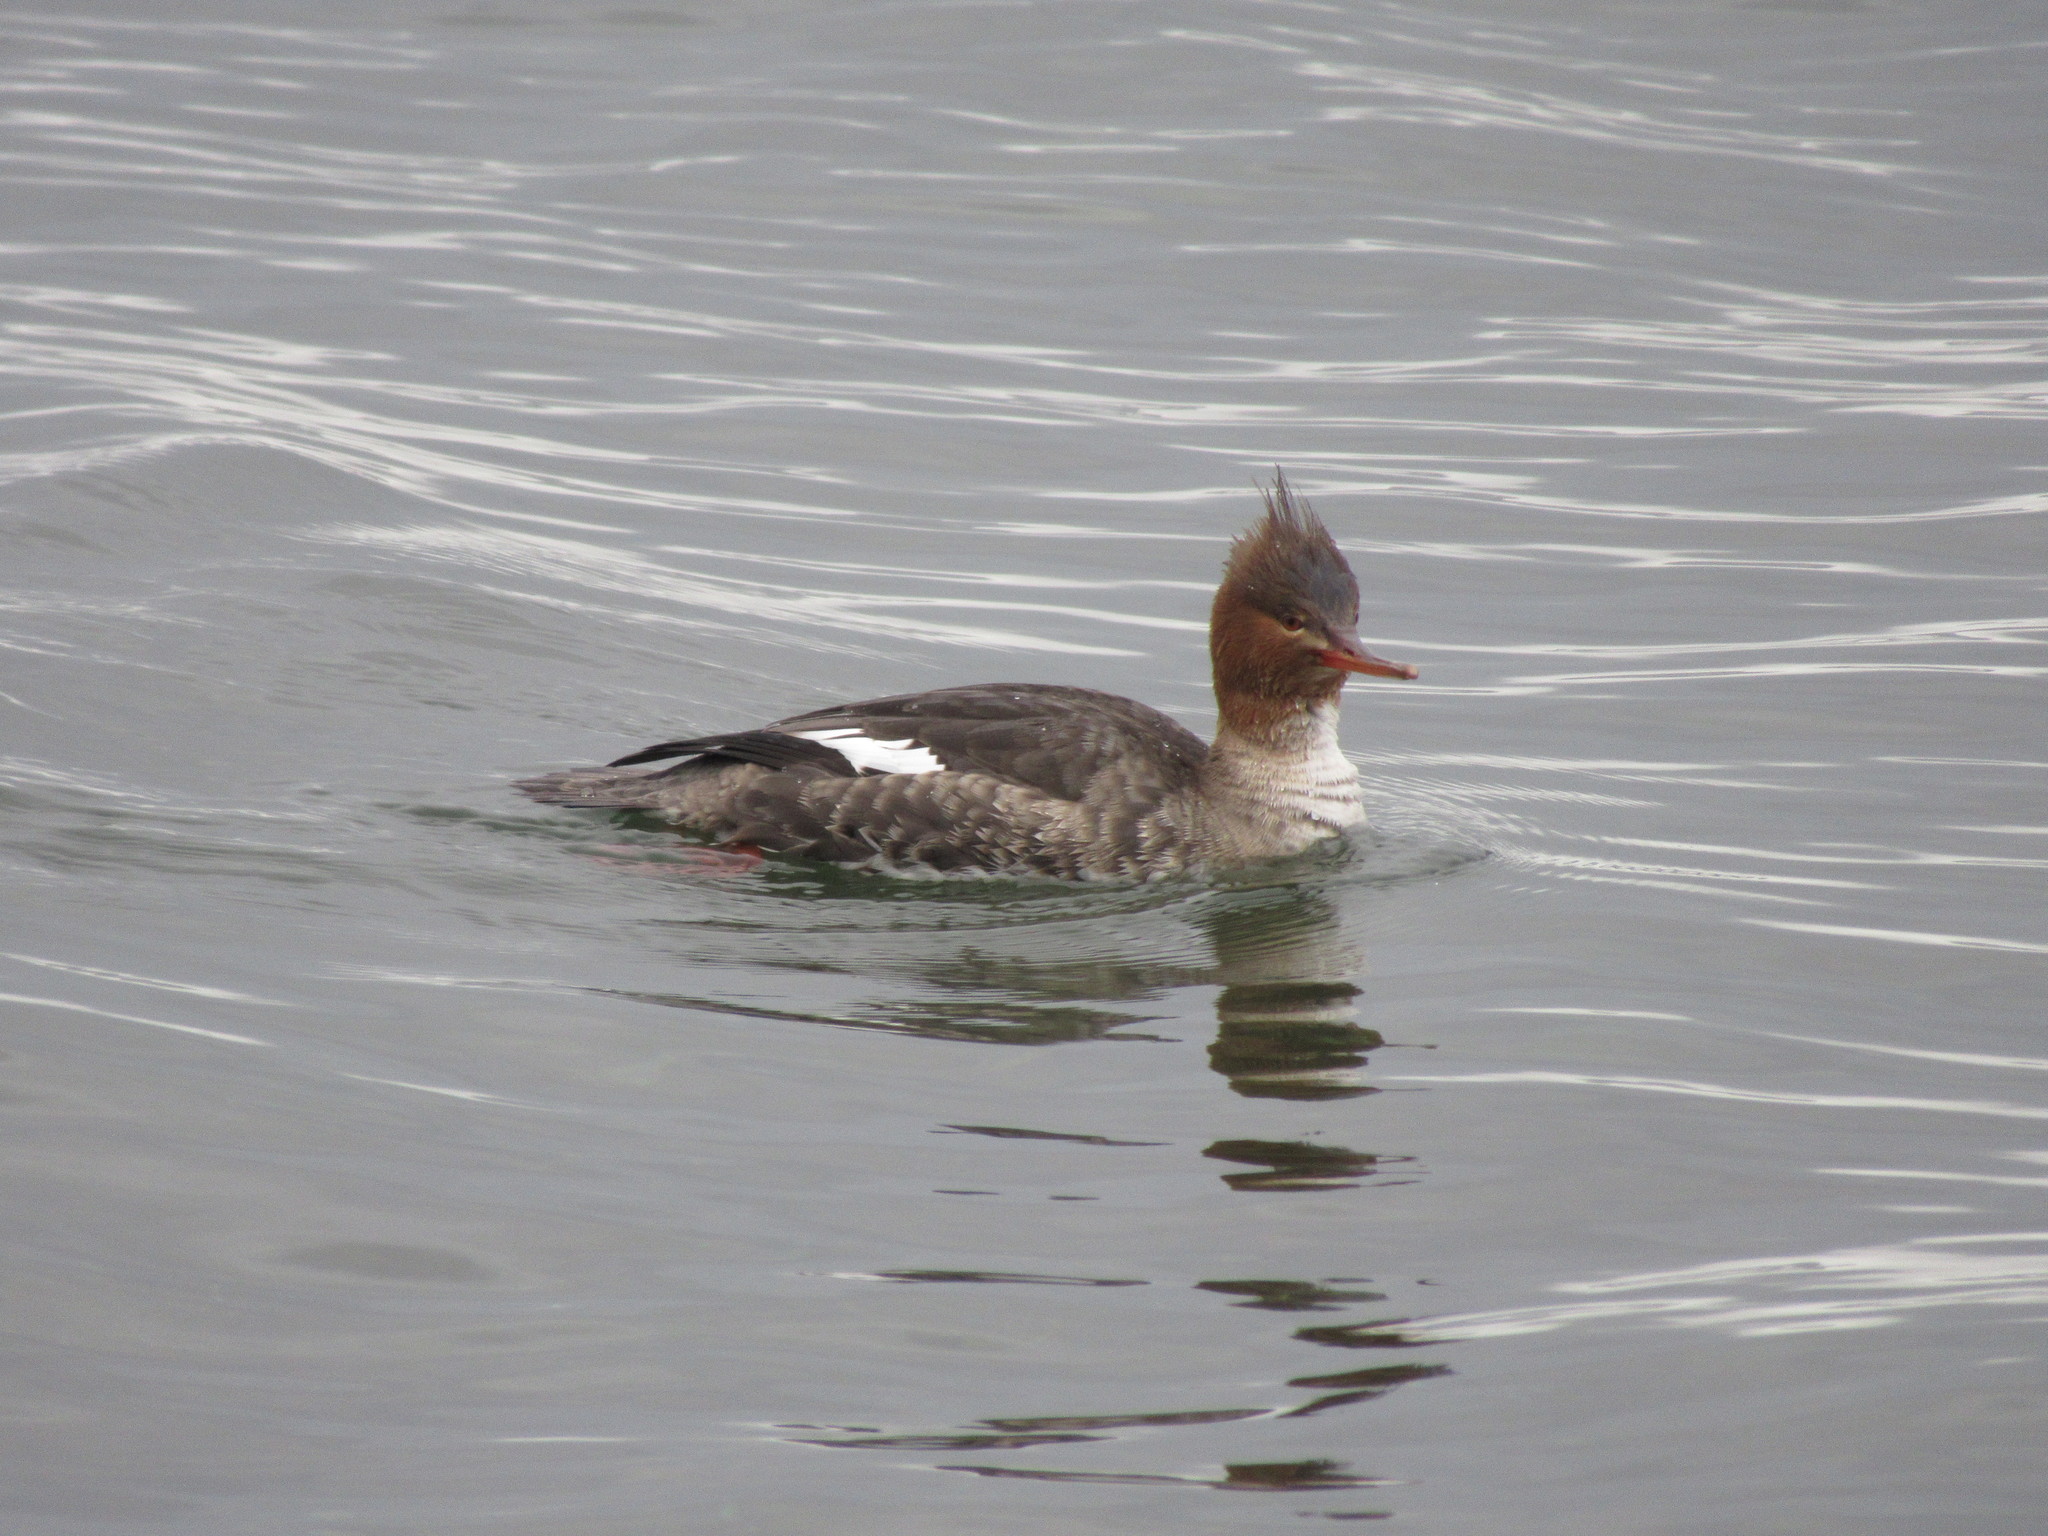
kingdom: Animalia
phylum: Chordata
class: Aves
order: Anseriformes
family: Anatidae
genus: Mergus
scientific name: Mergus serrator
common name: Red-breasted merganser
